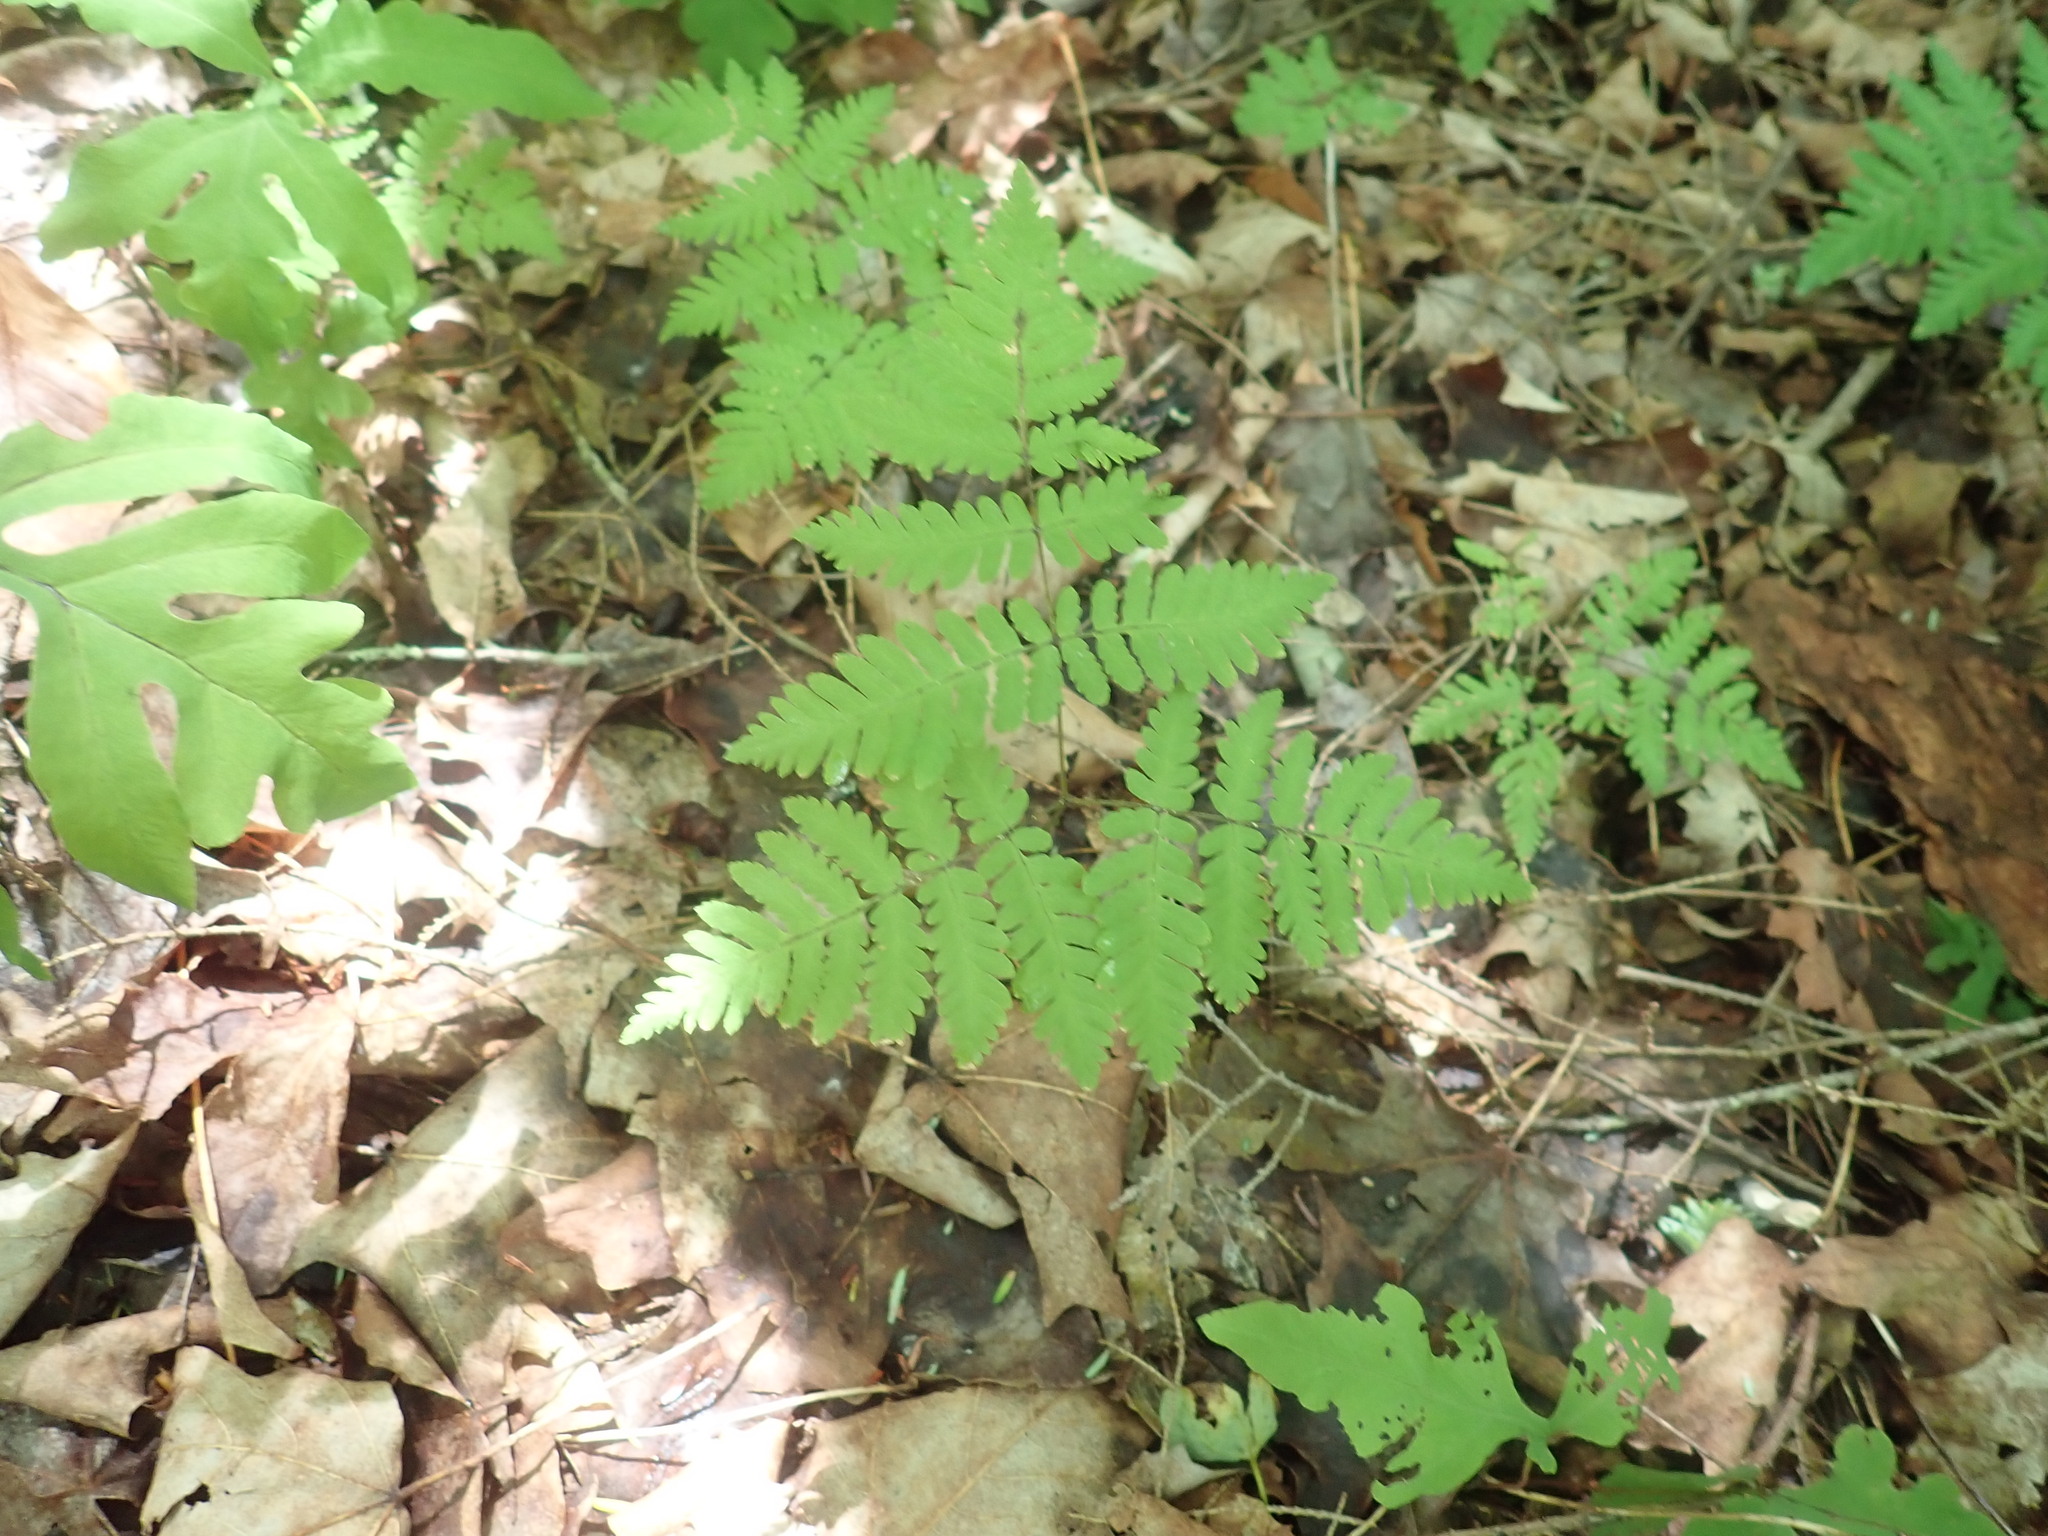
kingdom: Plantae
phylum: Tracheophyta
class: Polypodiopsida
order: Polypodiales
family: Cystopteridaceae
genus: Gymnocarpium
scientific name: Gymnocarpium dryopteris
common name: Oak fern
